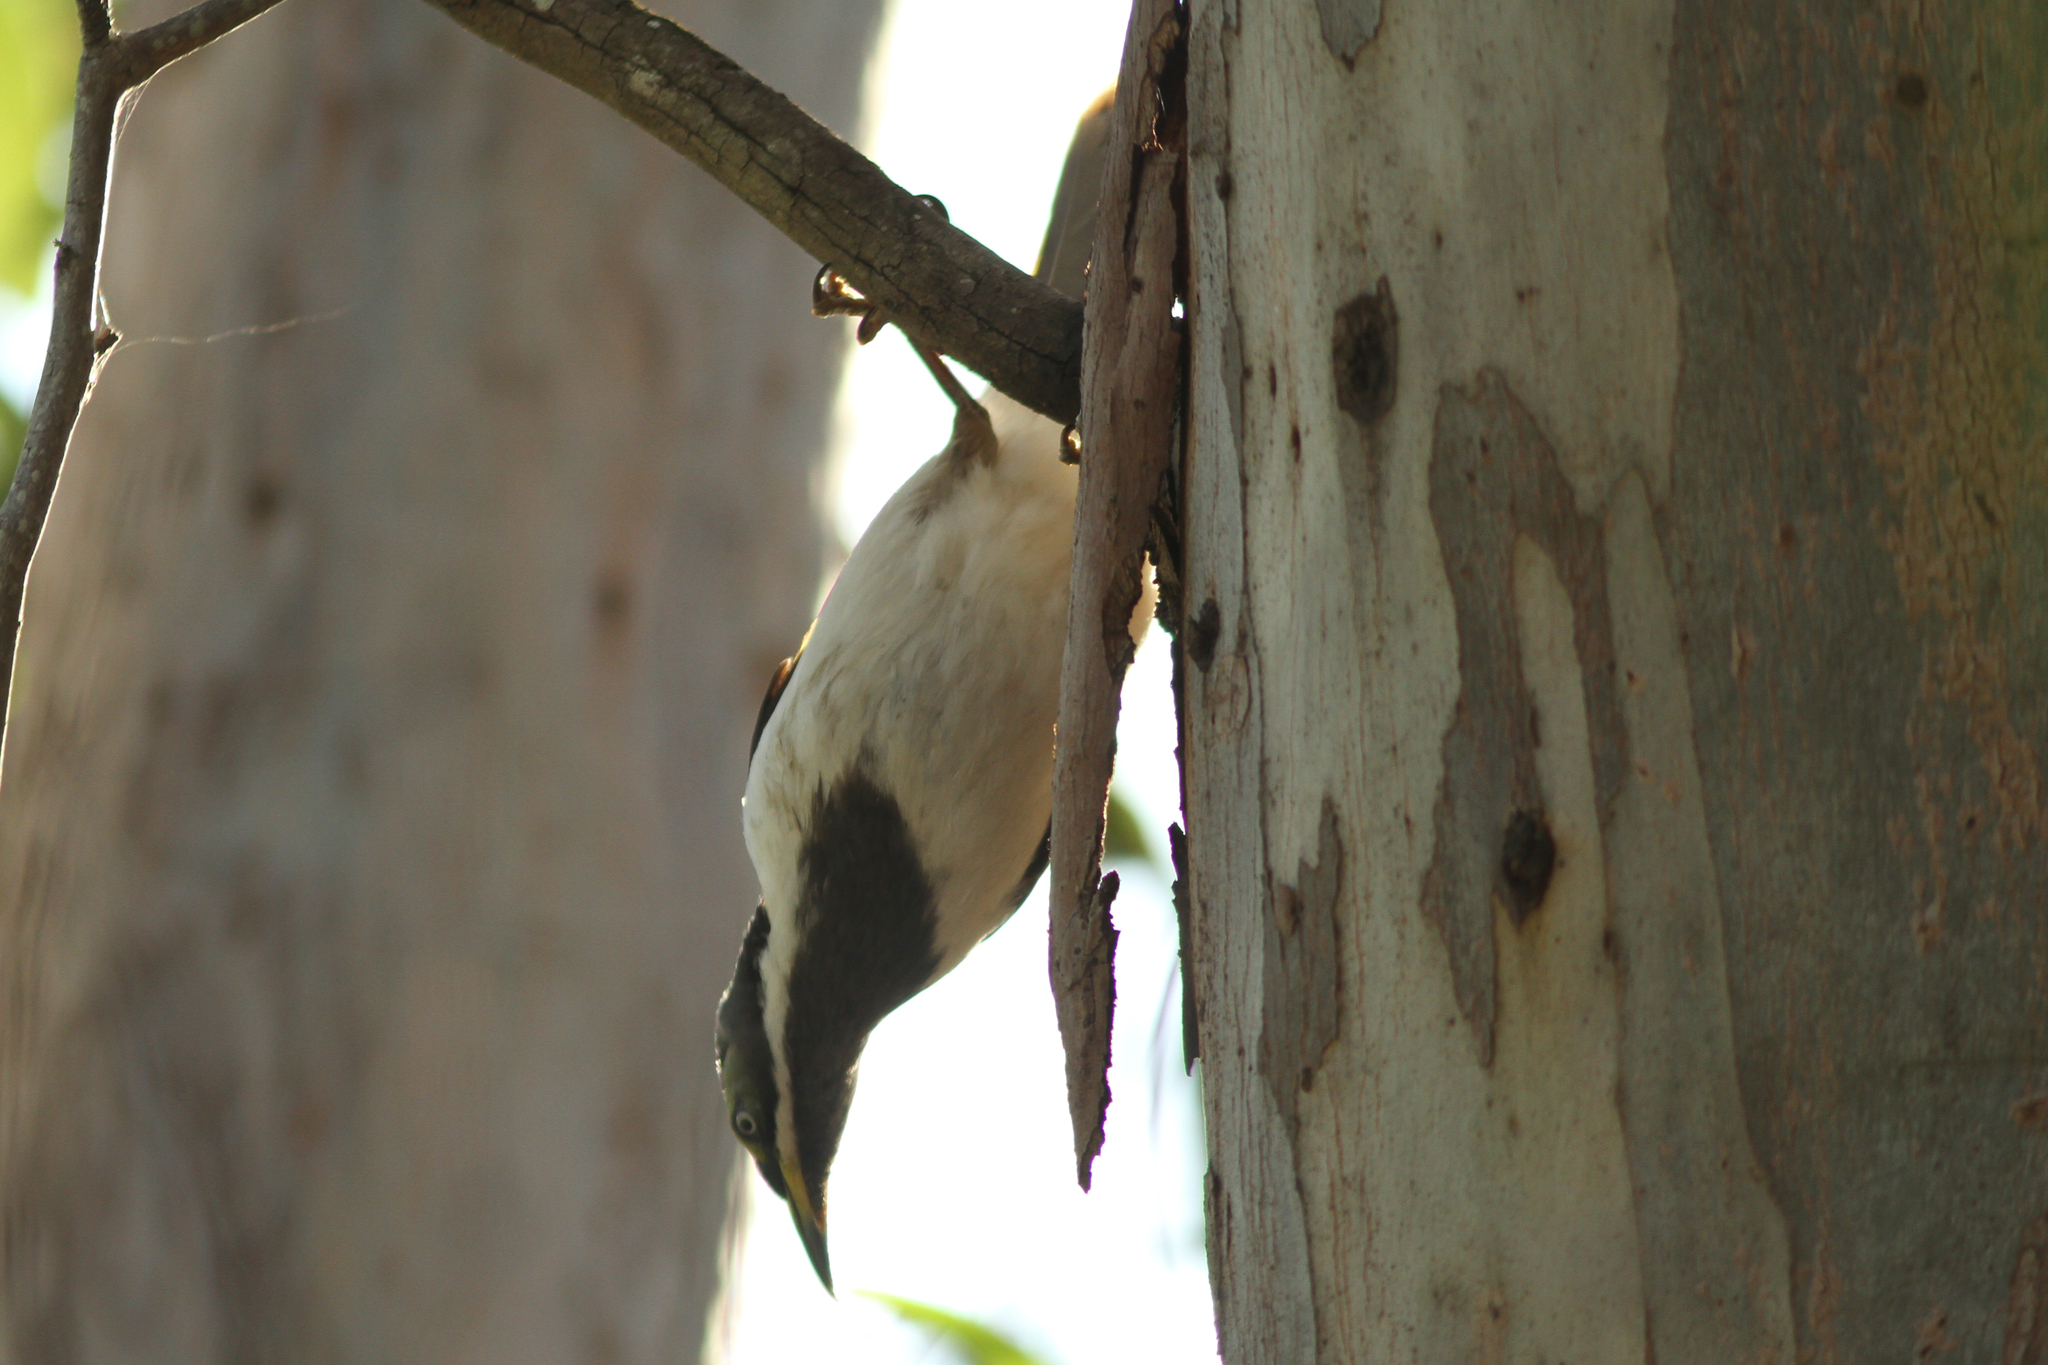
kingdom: Animalia
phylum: Chordata
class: Aves
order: Passeriformes
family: Meliphagidae
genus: Entomyzon
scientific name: Entomyzon cyanotis
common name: Blue-faced honeyeater
